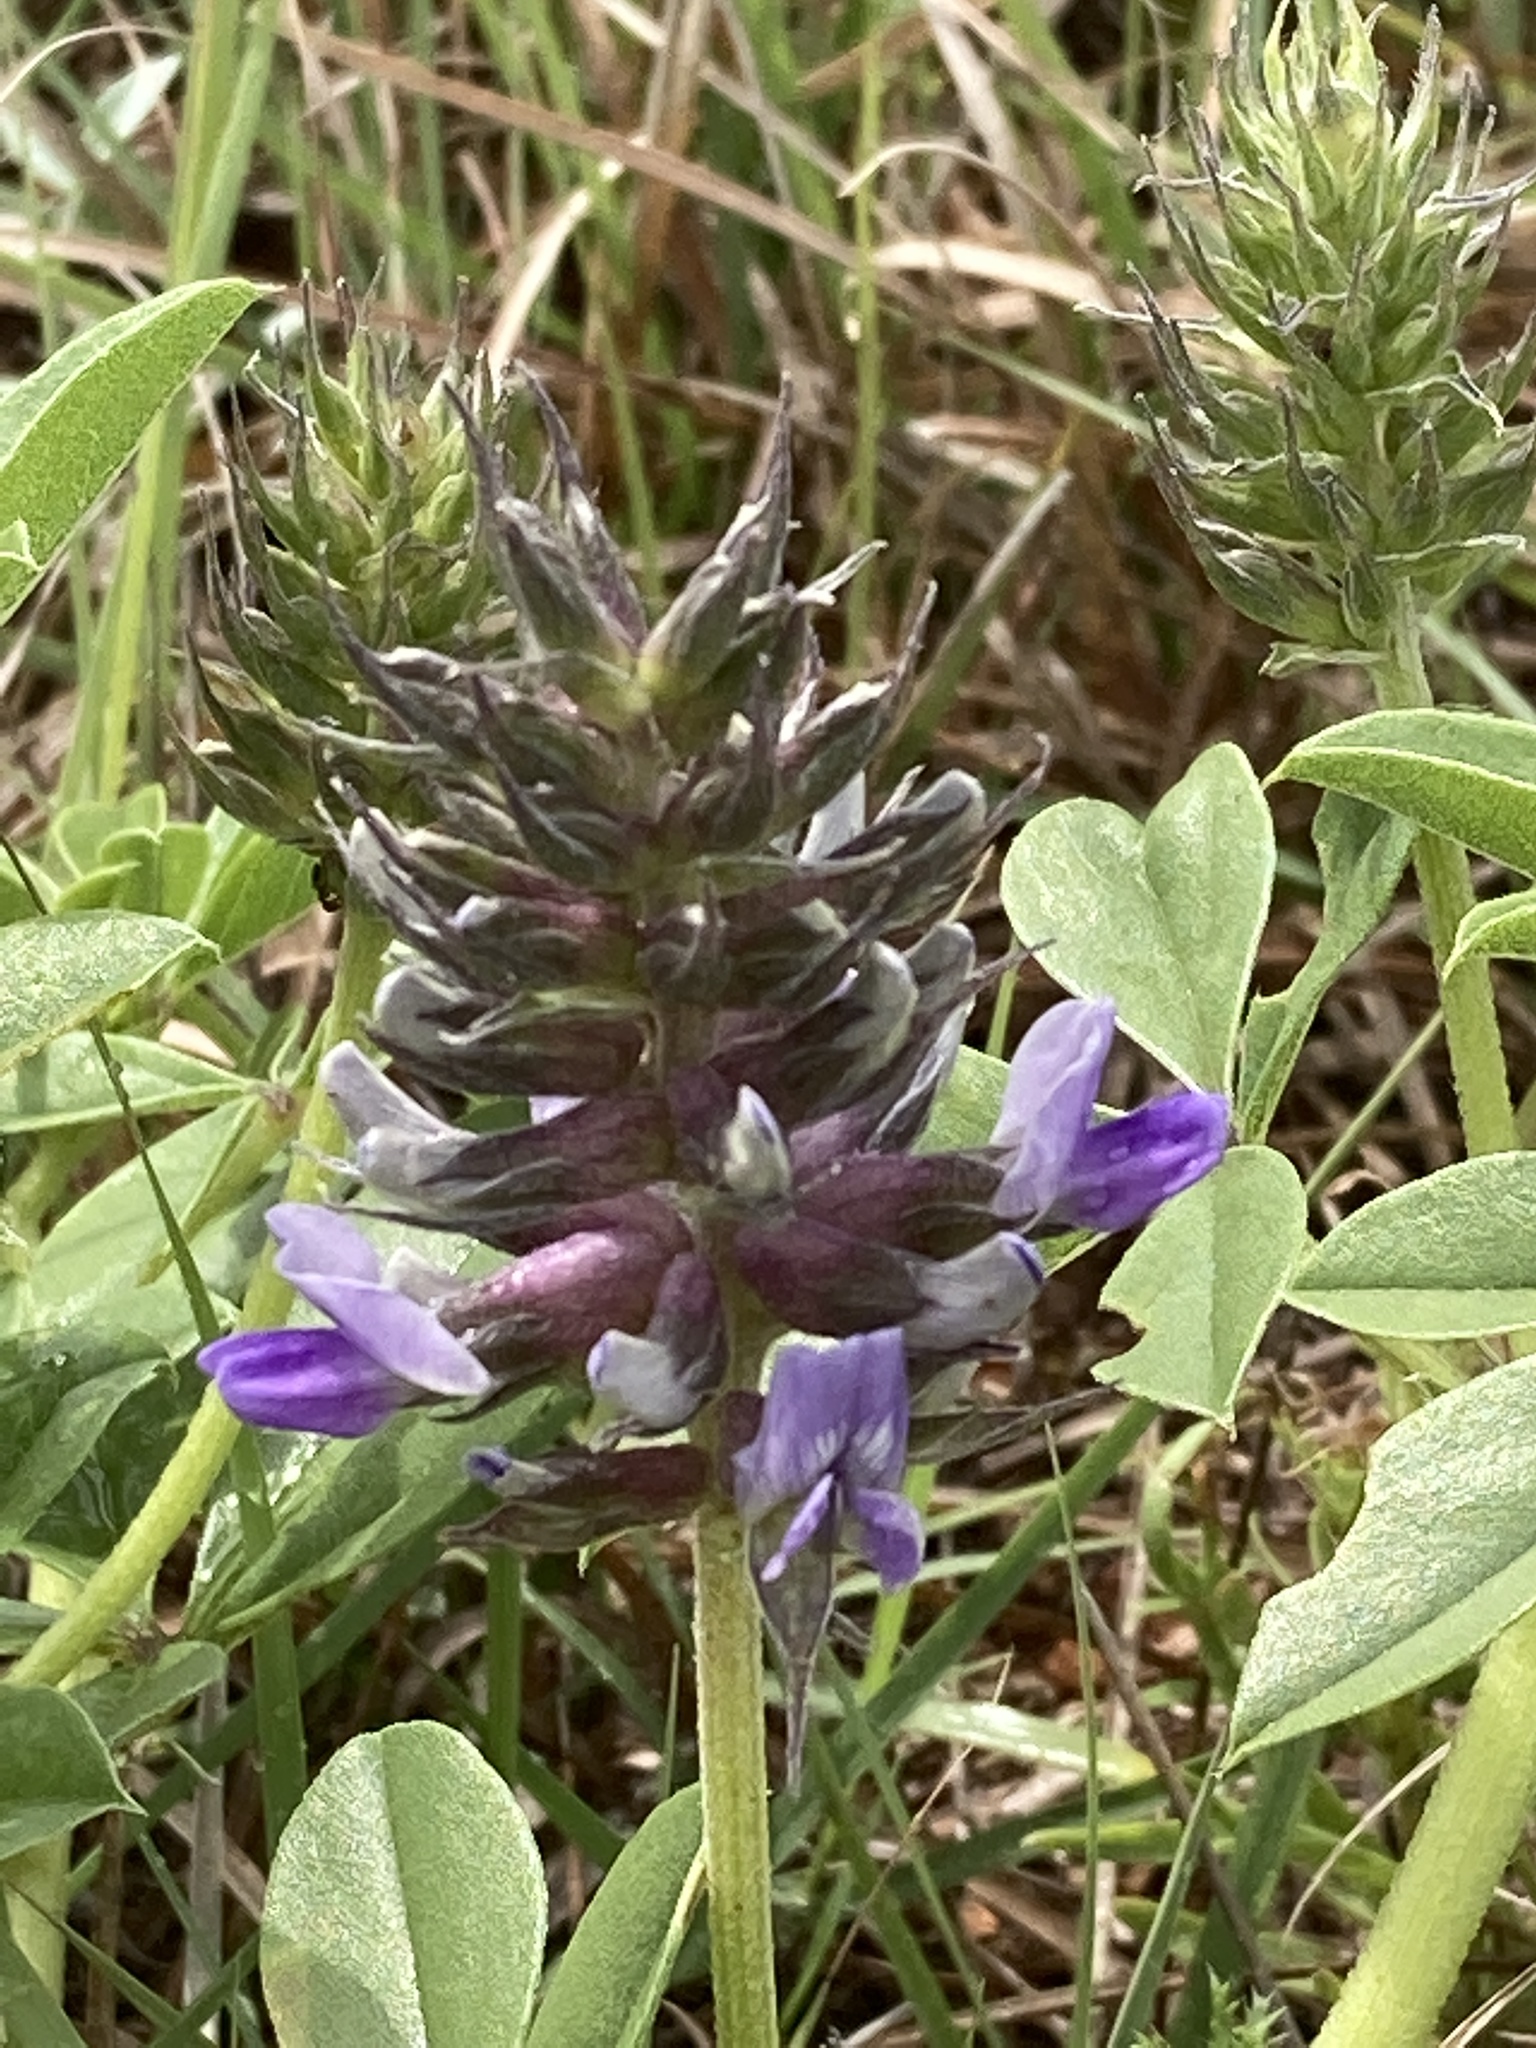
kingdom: Plantae
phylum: Tracheophyta
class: Magnoliopsida
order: Fabales
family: Fabaceae
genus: Pediomelum
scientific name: Pediomelum cuspidatum
